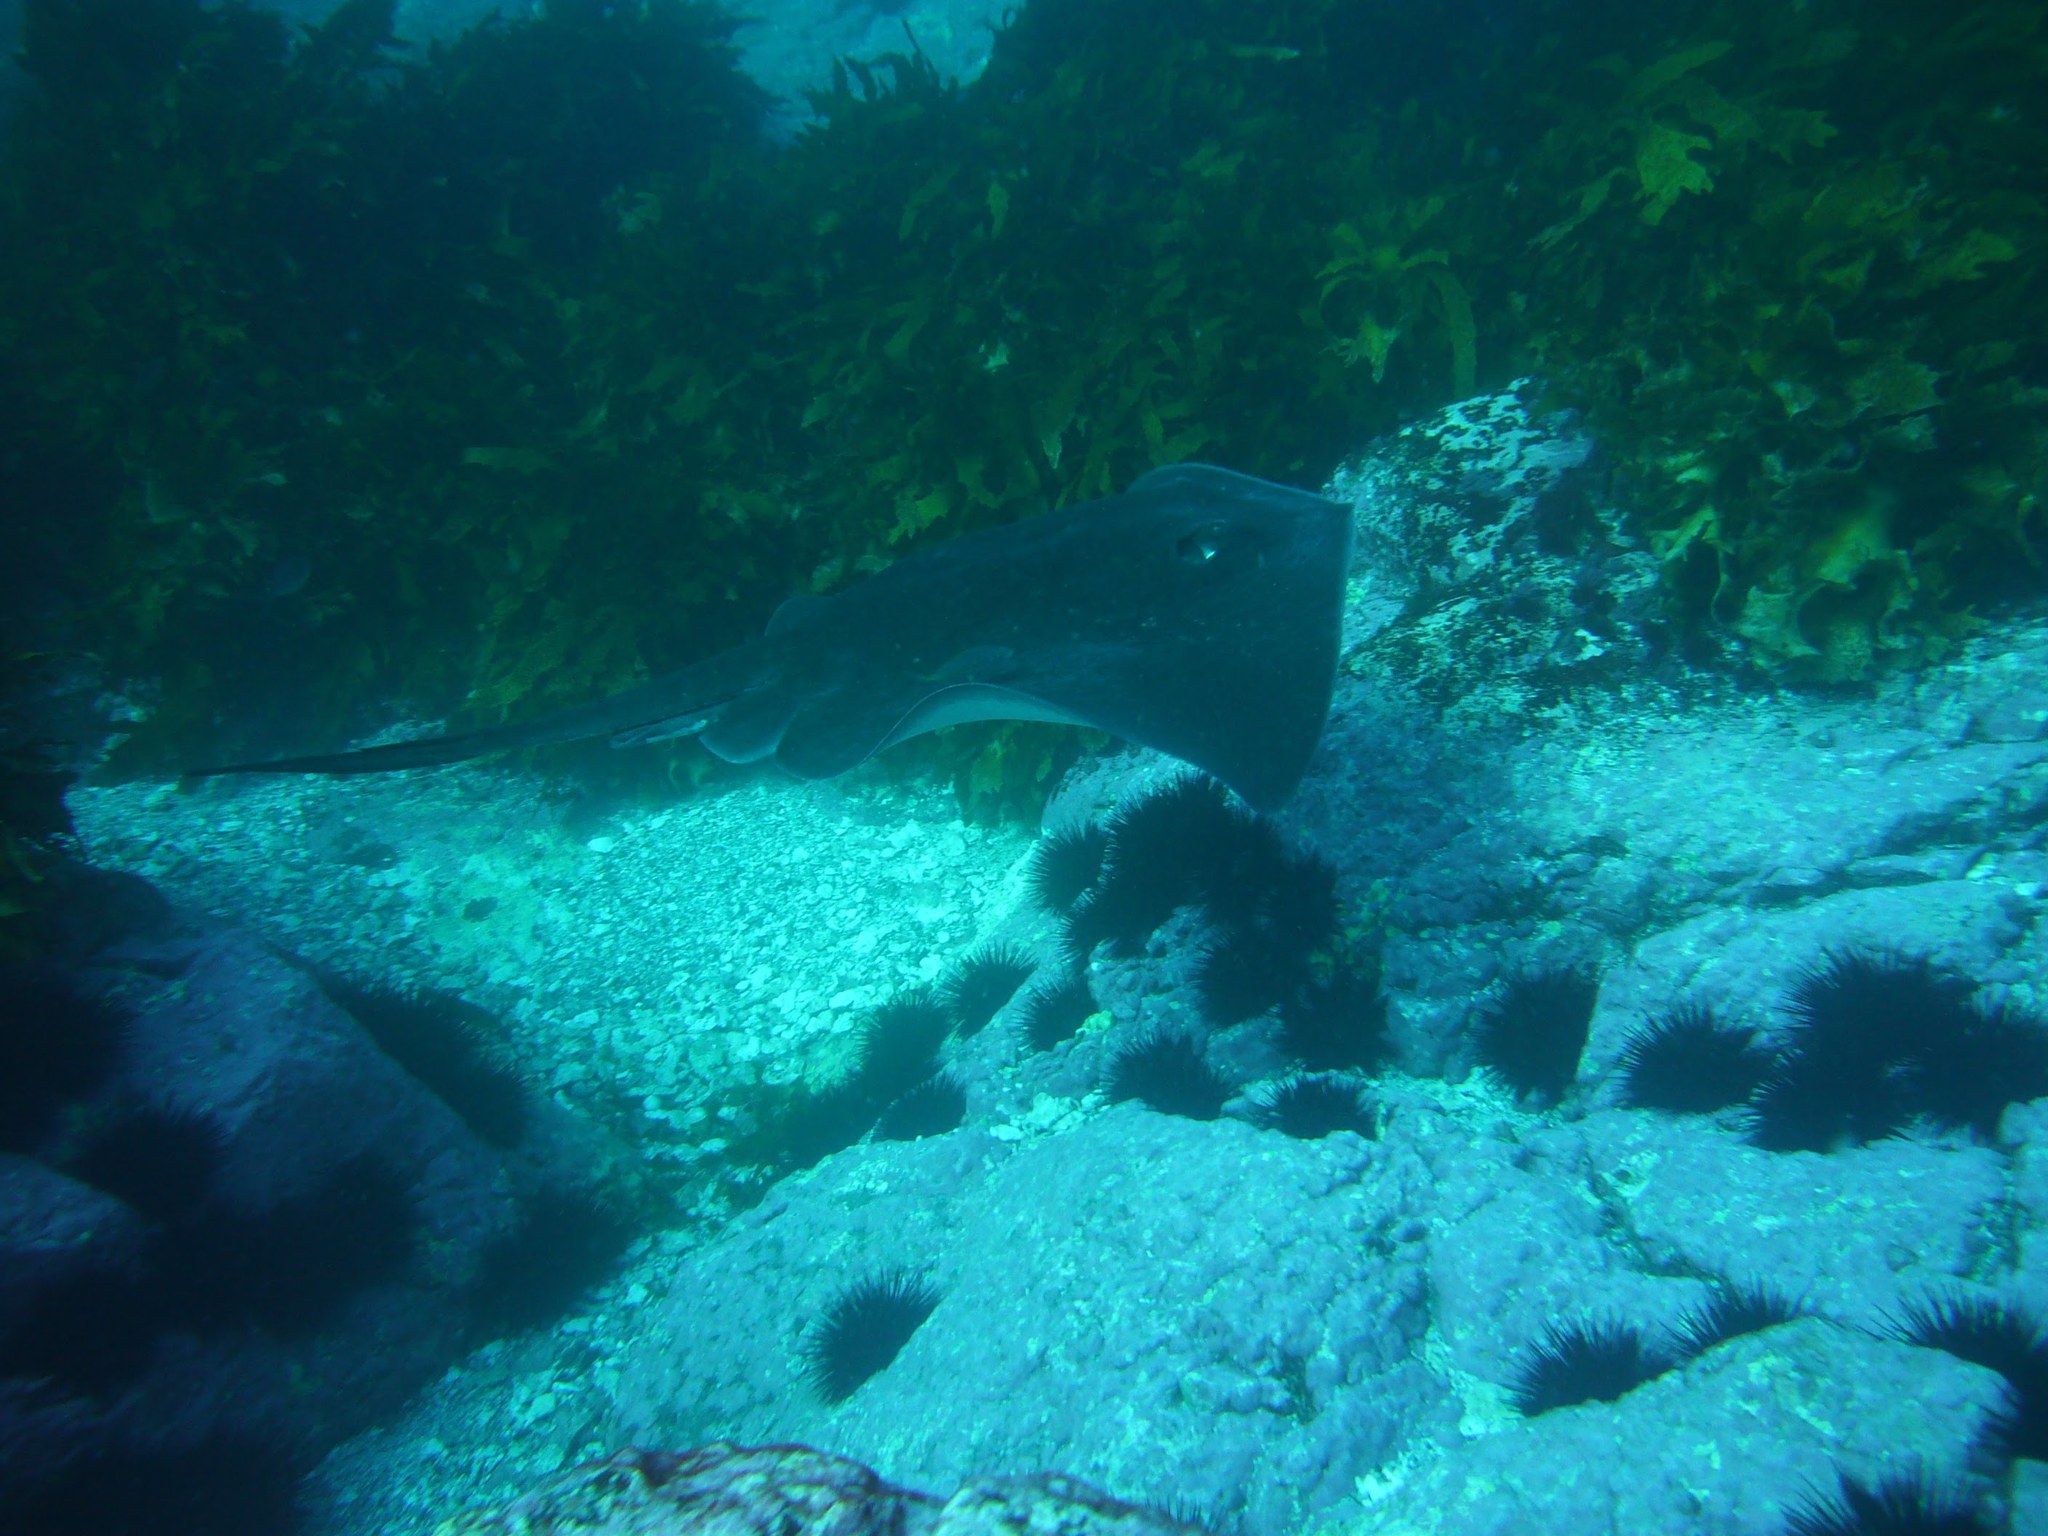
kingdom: Animalia
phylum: Chordata
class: Elasmobranchii
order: Myliobatiformes
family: Dasyatidae
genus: Bathytoshia
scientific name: Bathytoshia brevicaudata
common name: Short-tail stingray
